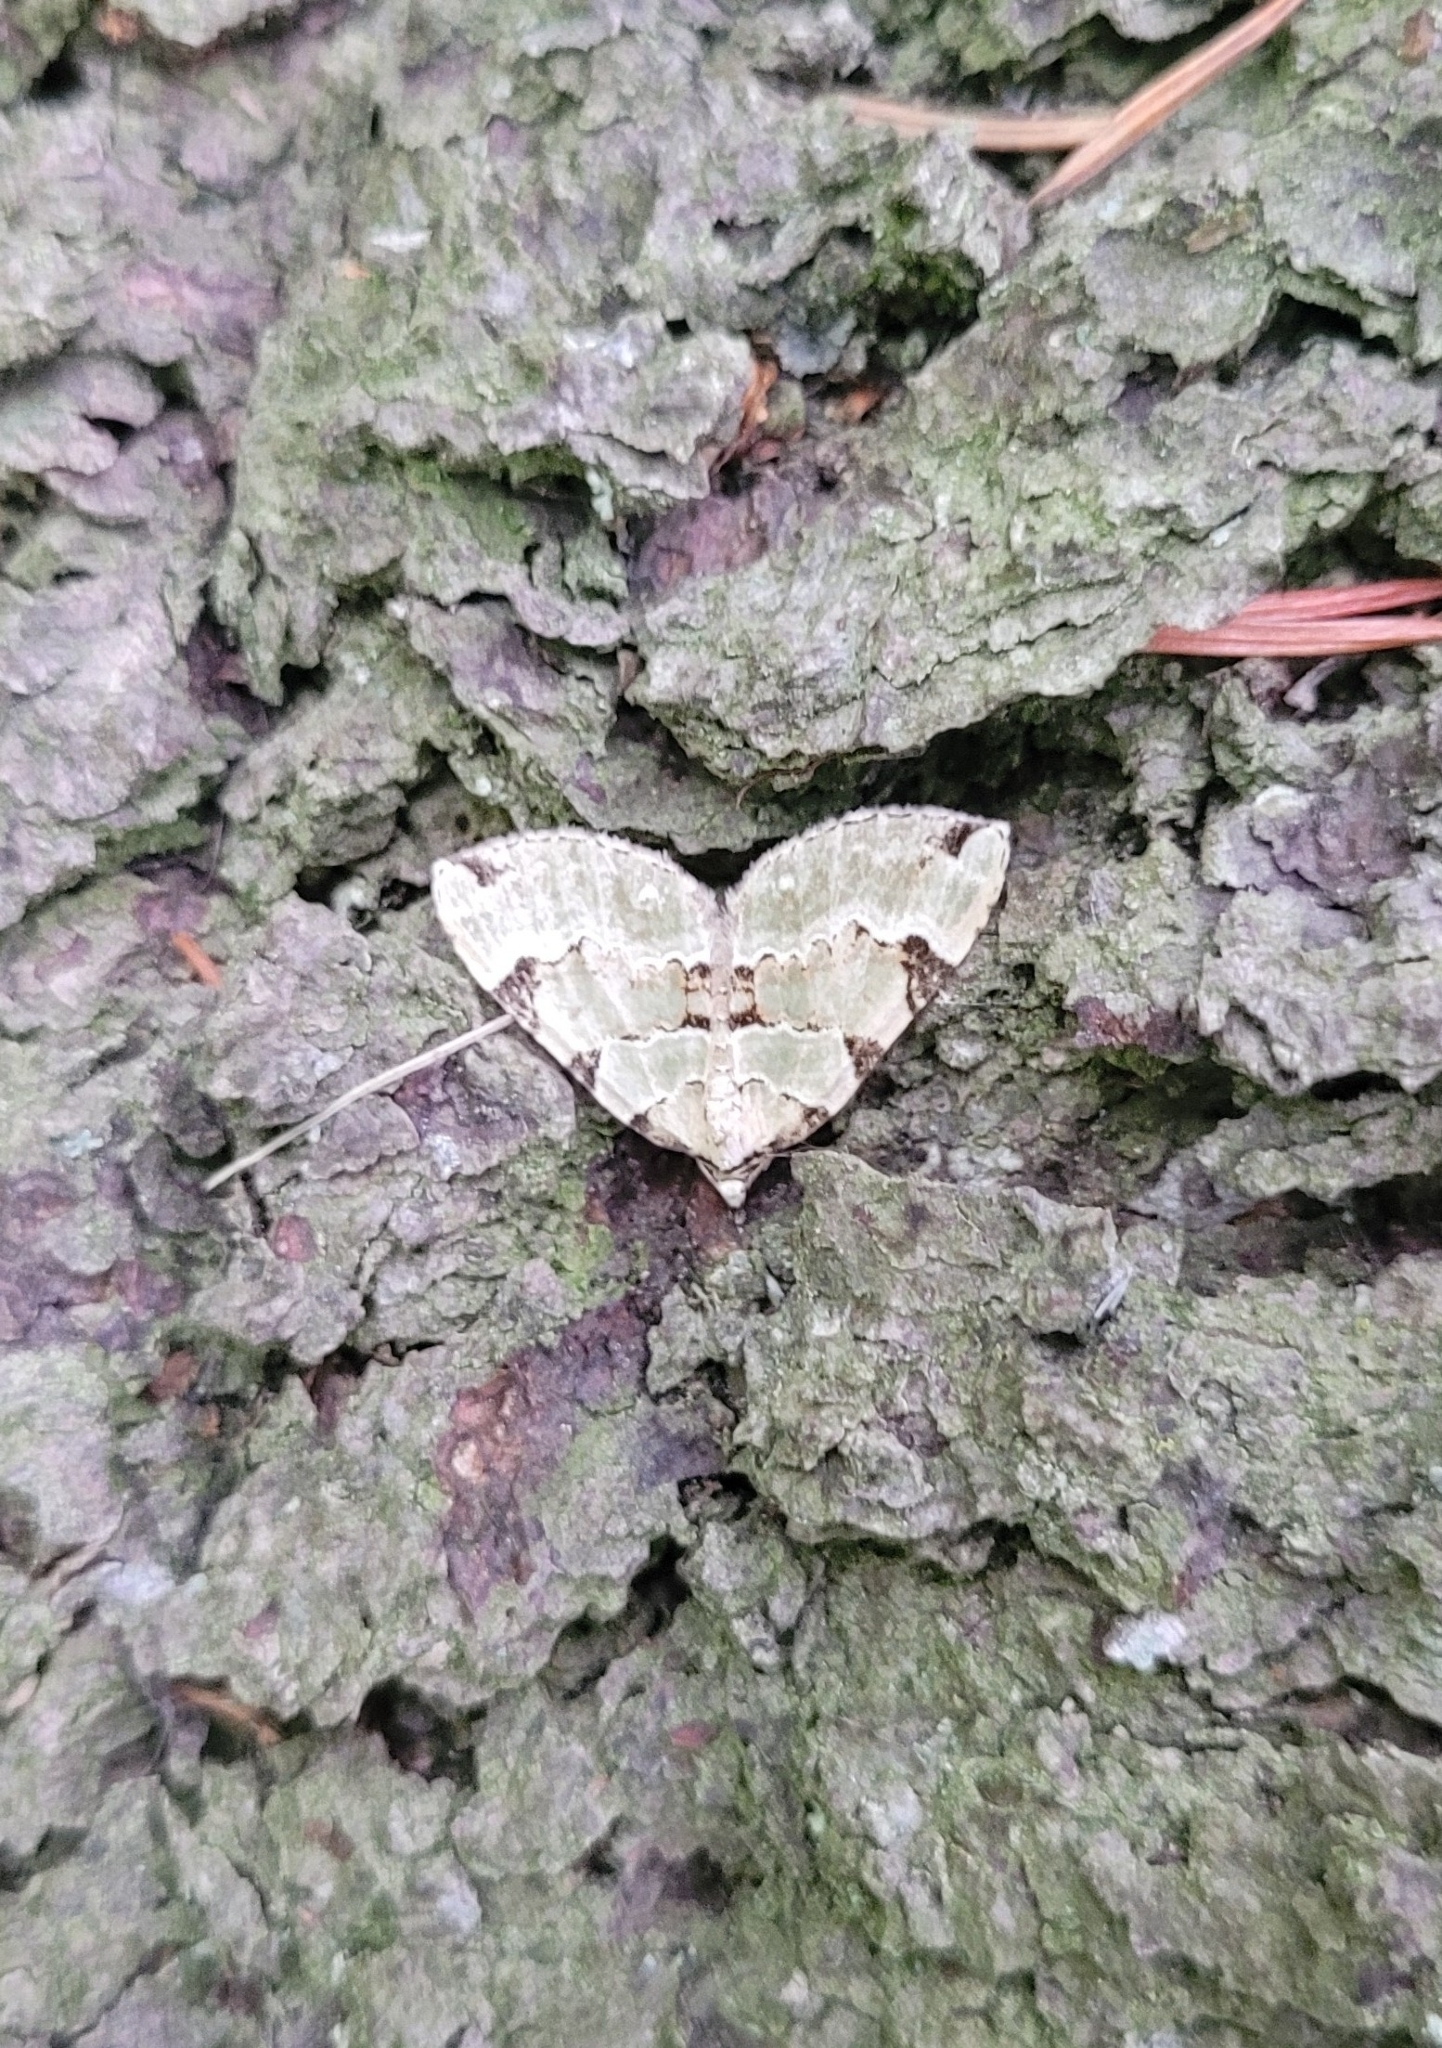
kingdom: Animalia
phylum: Arthropoda
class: Insecta
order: Lepidoptera
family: Geometridae
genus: Colostygia
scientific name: Colostygia pectinataria
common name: Green carpet
